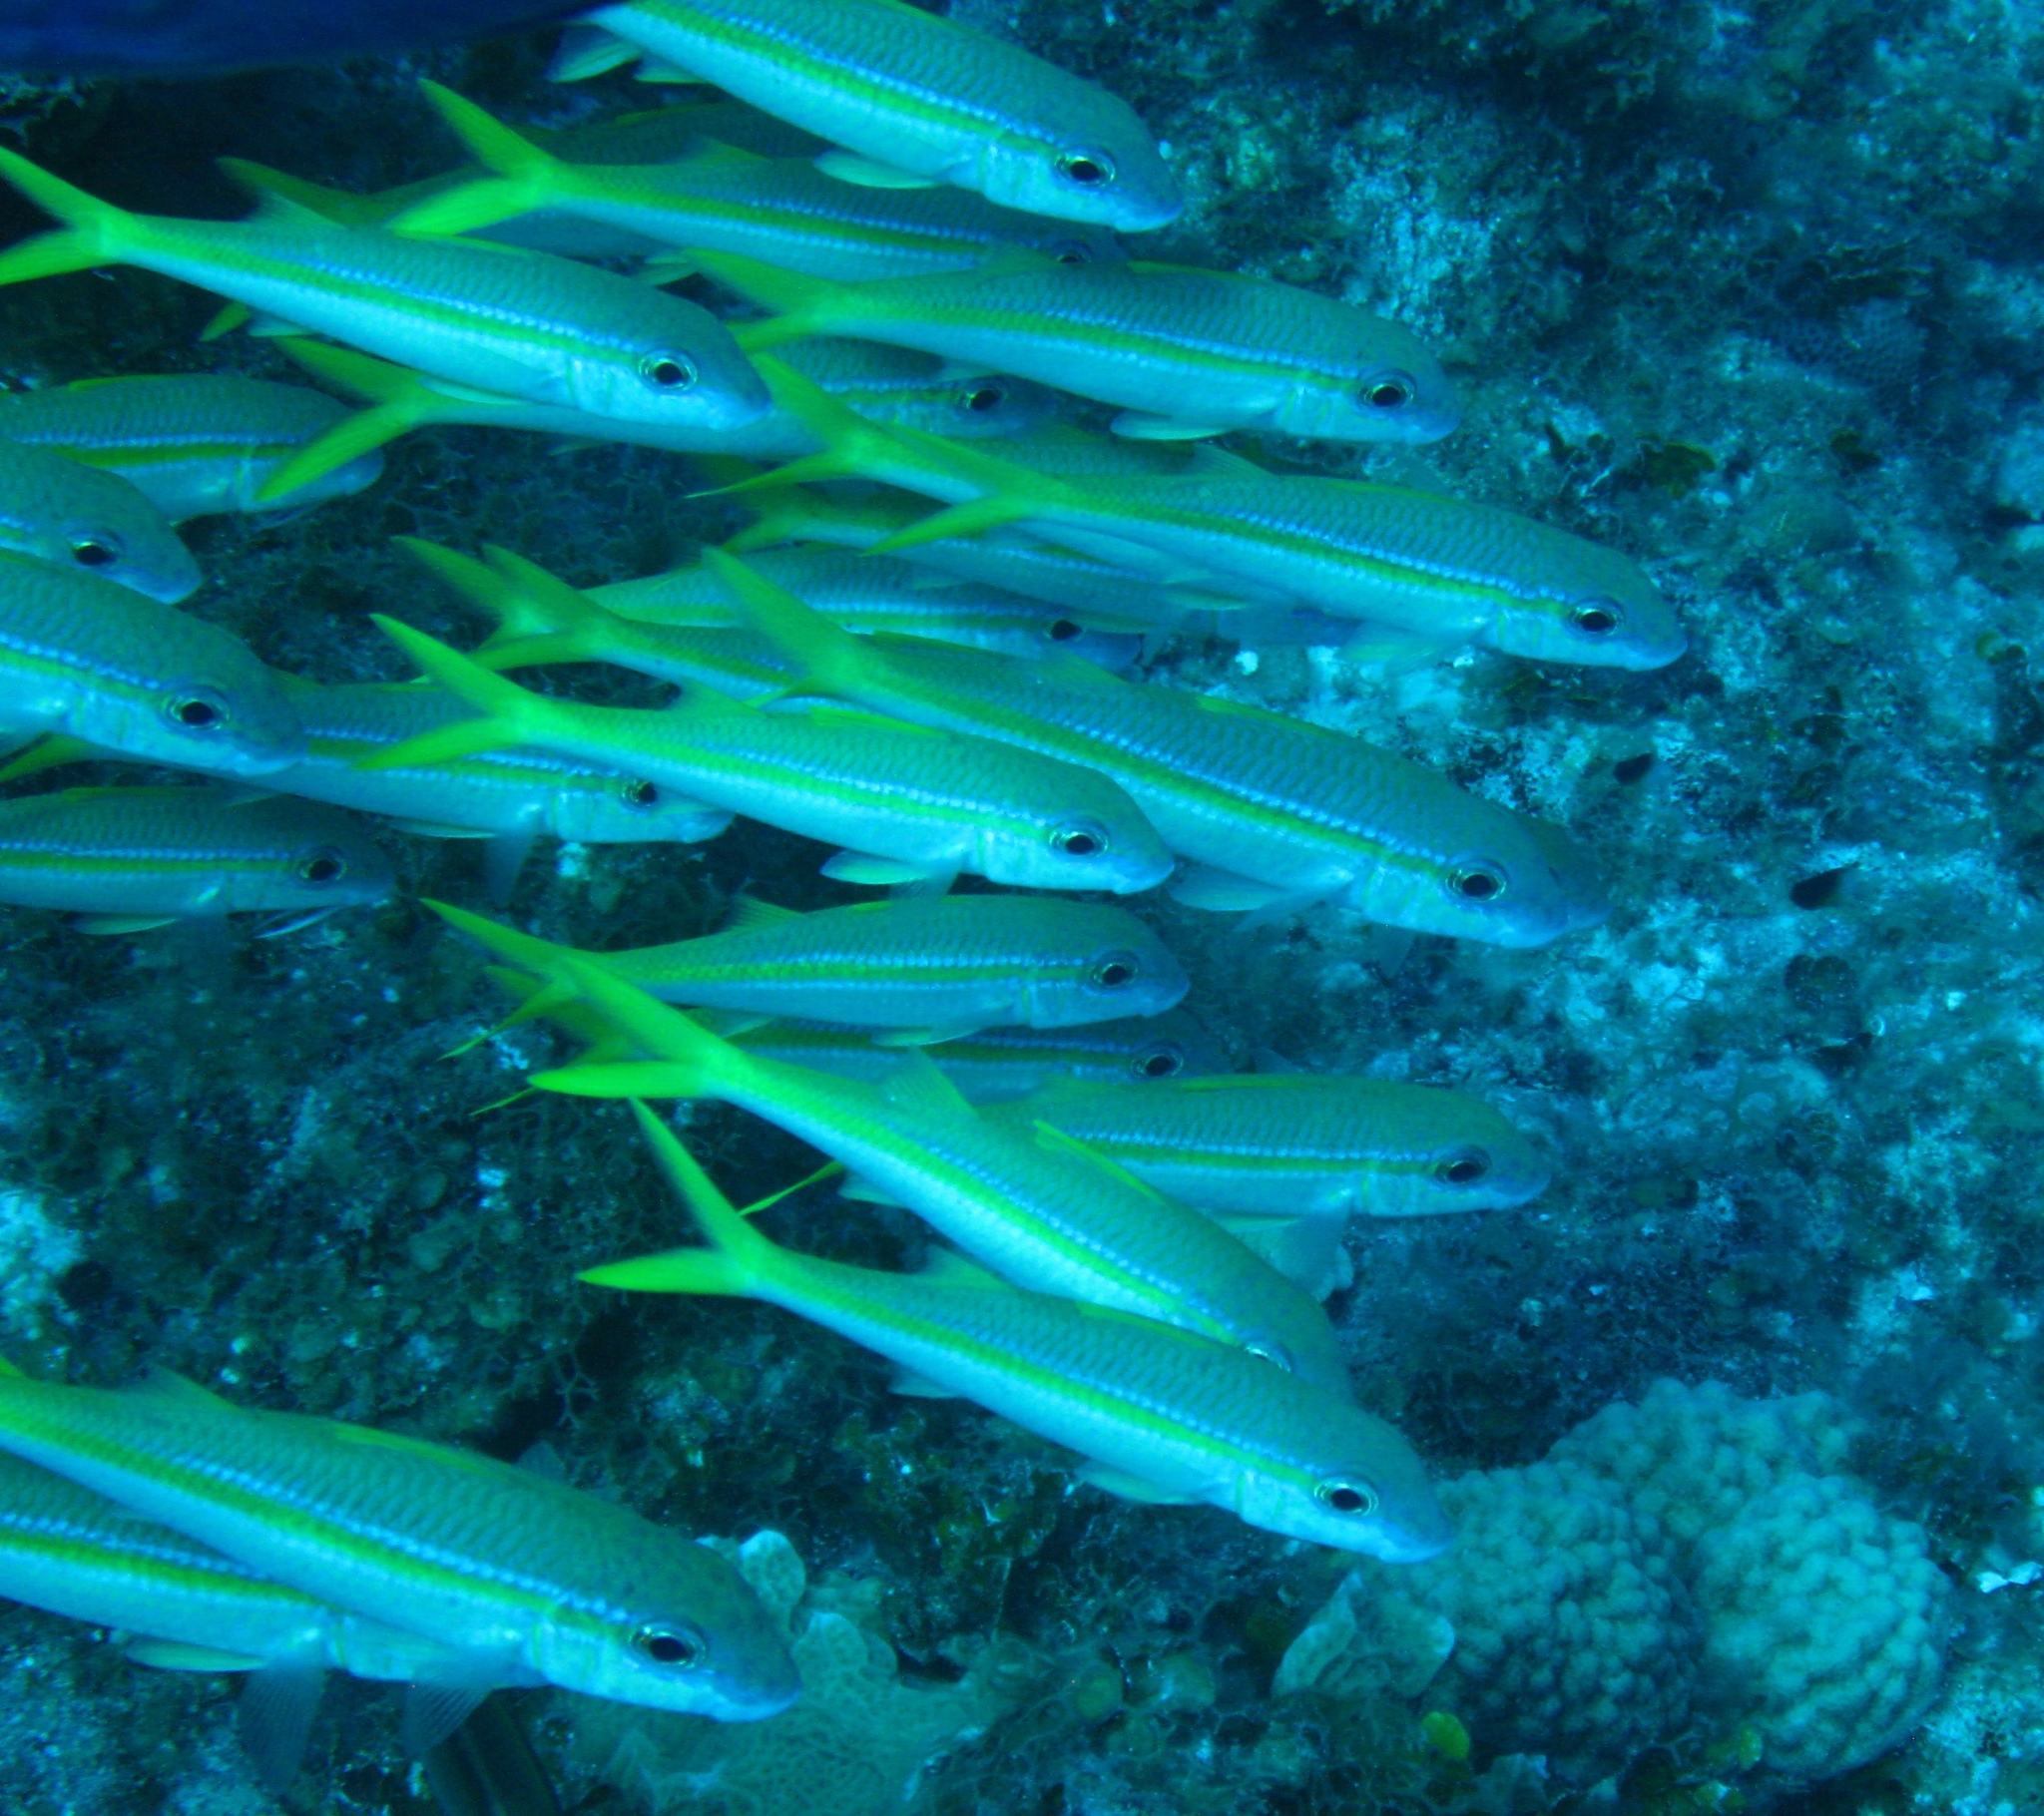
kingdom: Animalia
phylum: Chordata
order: Perciformes
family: Mullidae
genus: Mulloidichthys
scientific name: Mulloidichthys martinicus
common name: Yellow goatfish
